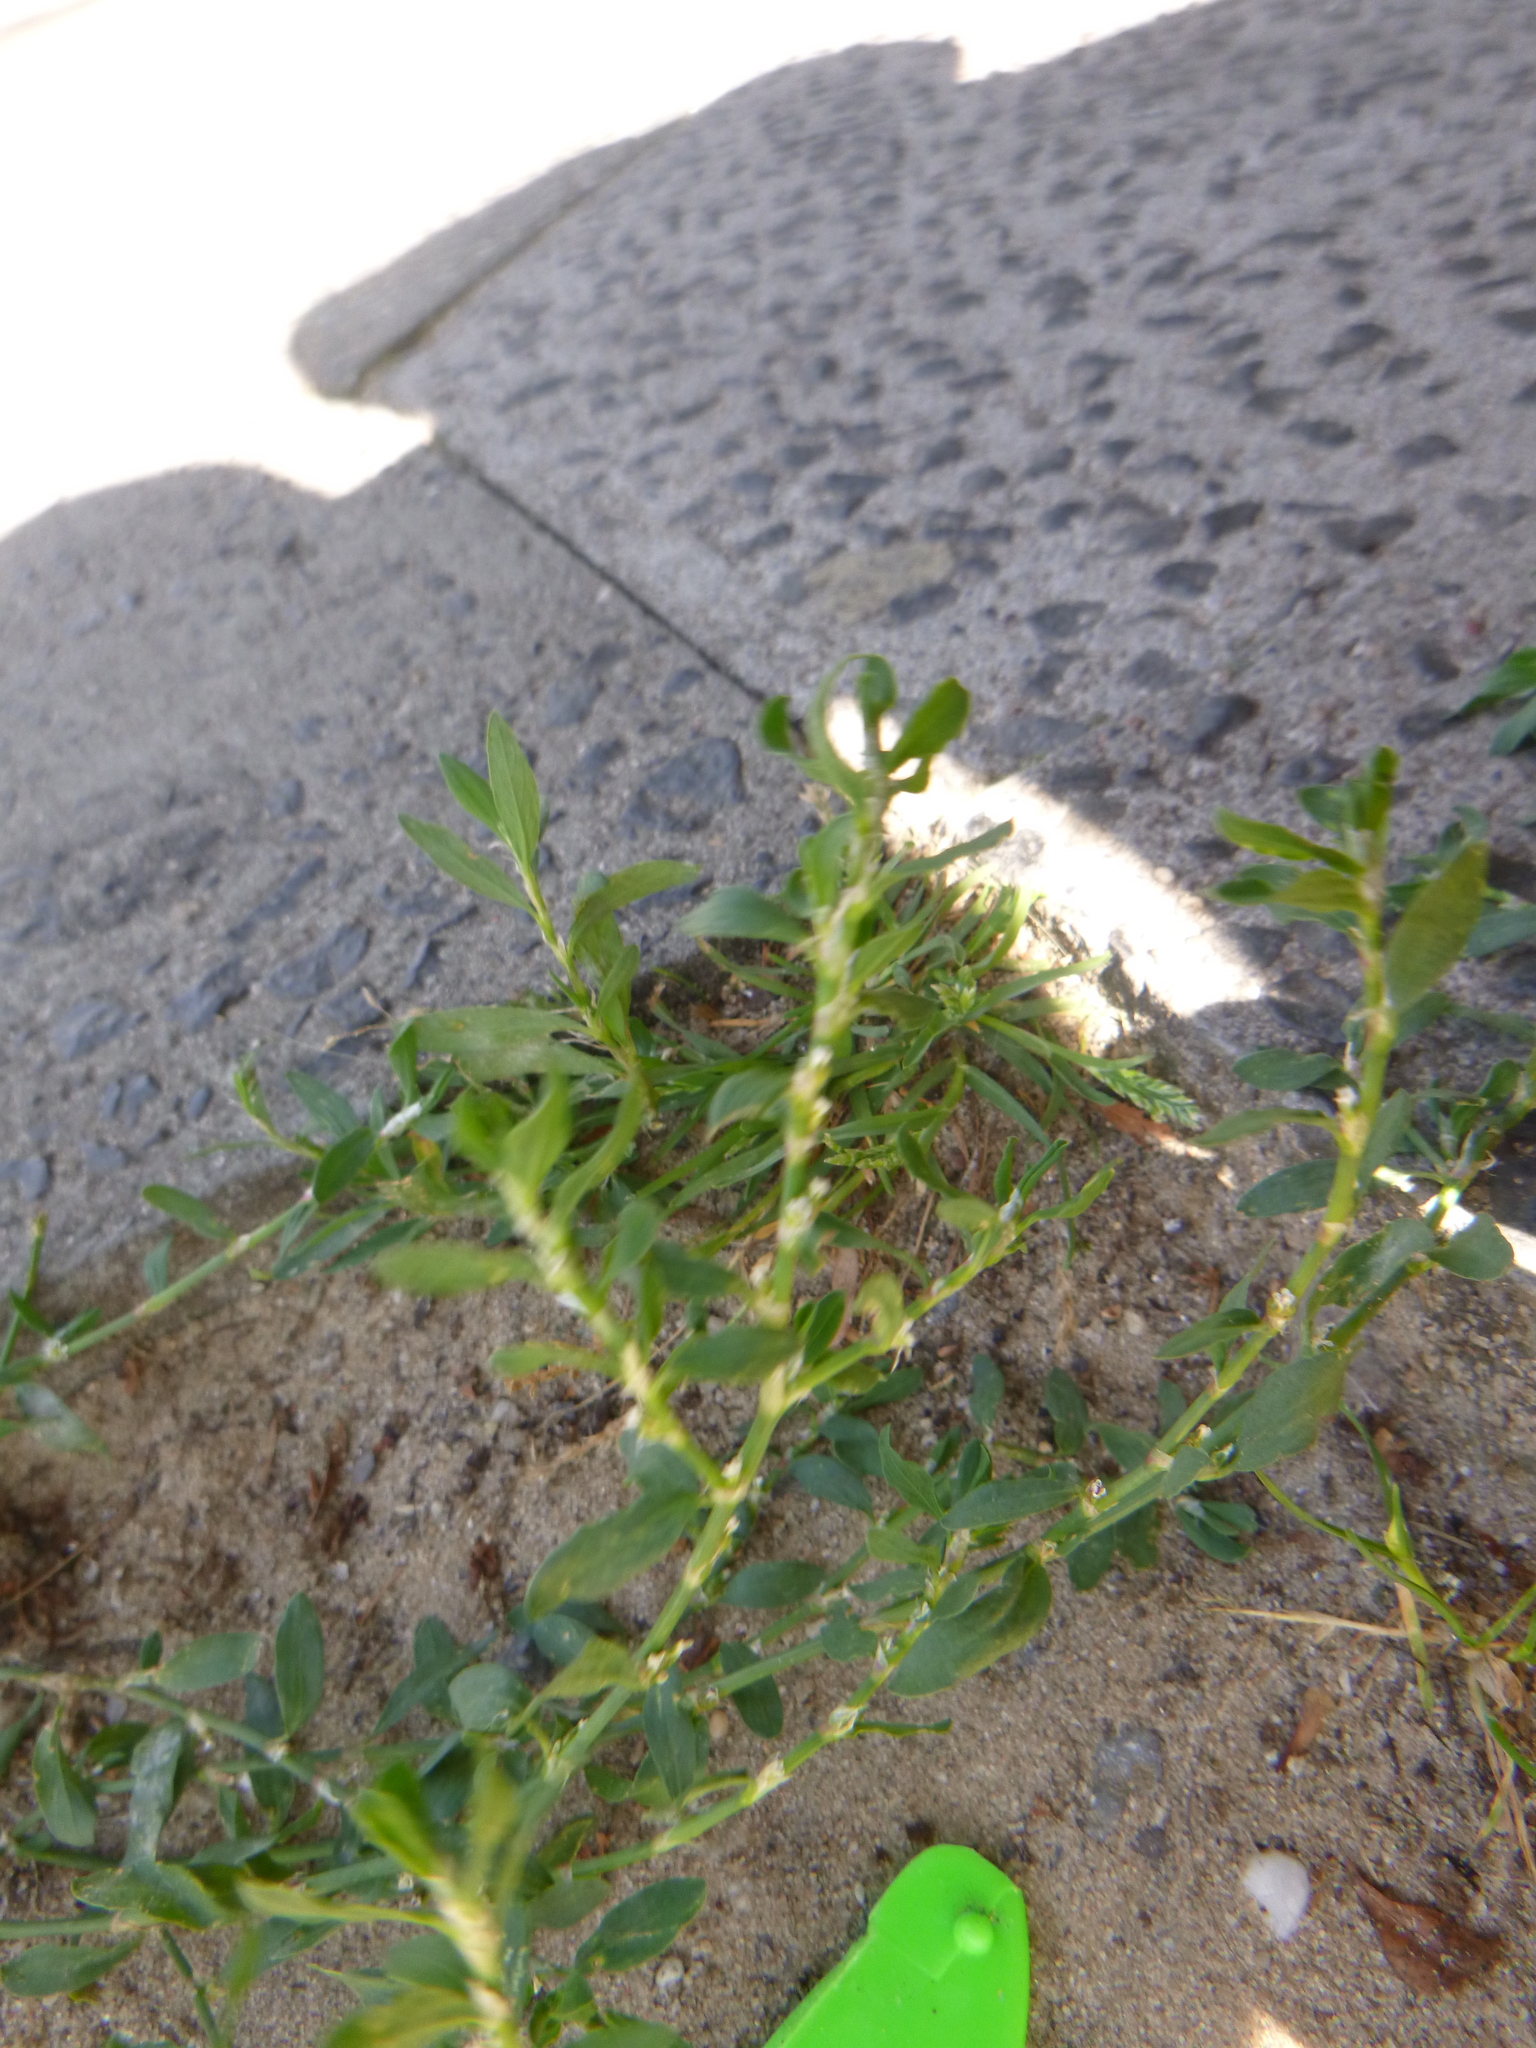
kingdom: Plantae
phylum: Tracheophyta
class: Magnoliopsida
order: Caryophyllales
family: Polygonaceae
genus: Polygonum
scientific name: Polygonum aviculare
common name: Prostrate knotweed
